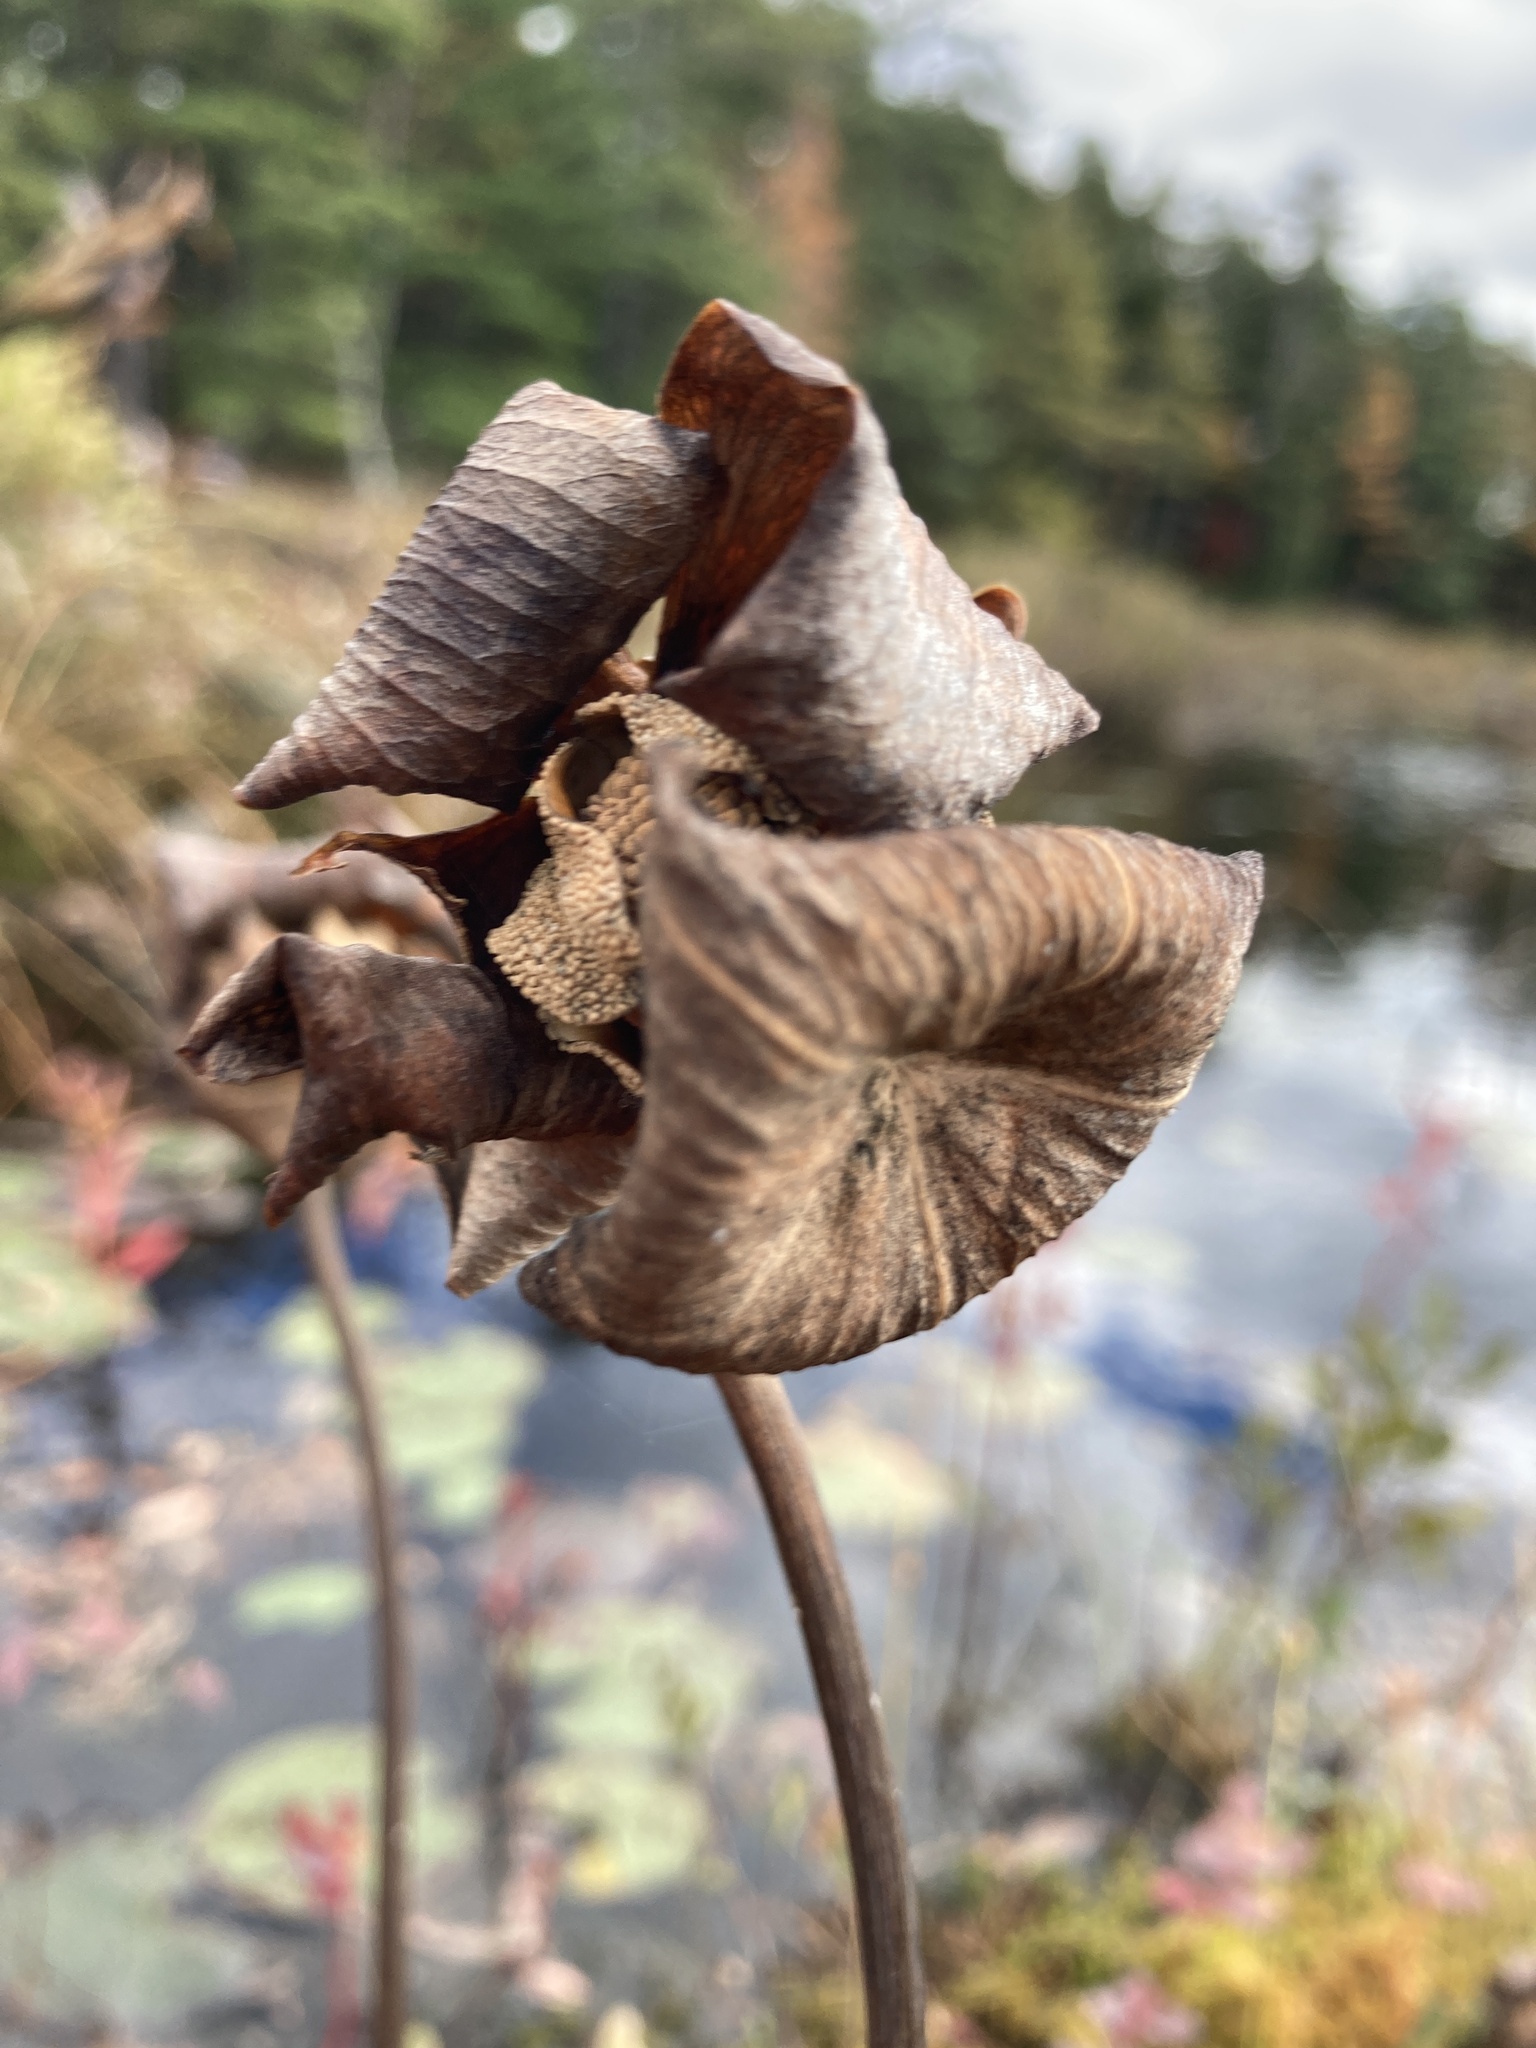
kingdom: Plantae
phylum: Tracheophyta
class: Magnoliopsida
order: Ericales
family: Sarraceniaceae
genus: Sarracenia
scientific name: Sarracenia purpurea
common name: Pitcherplant
